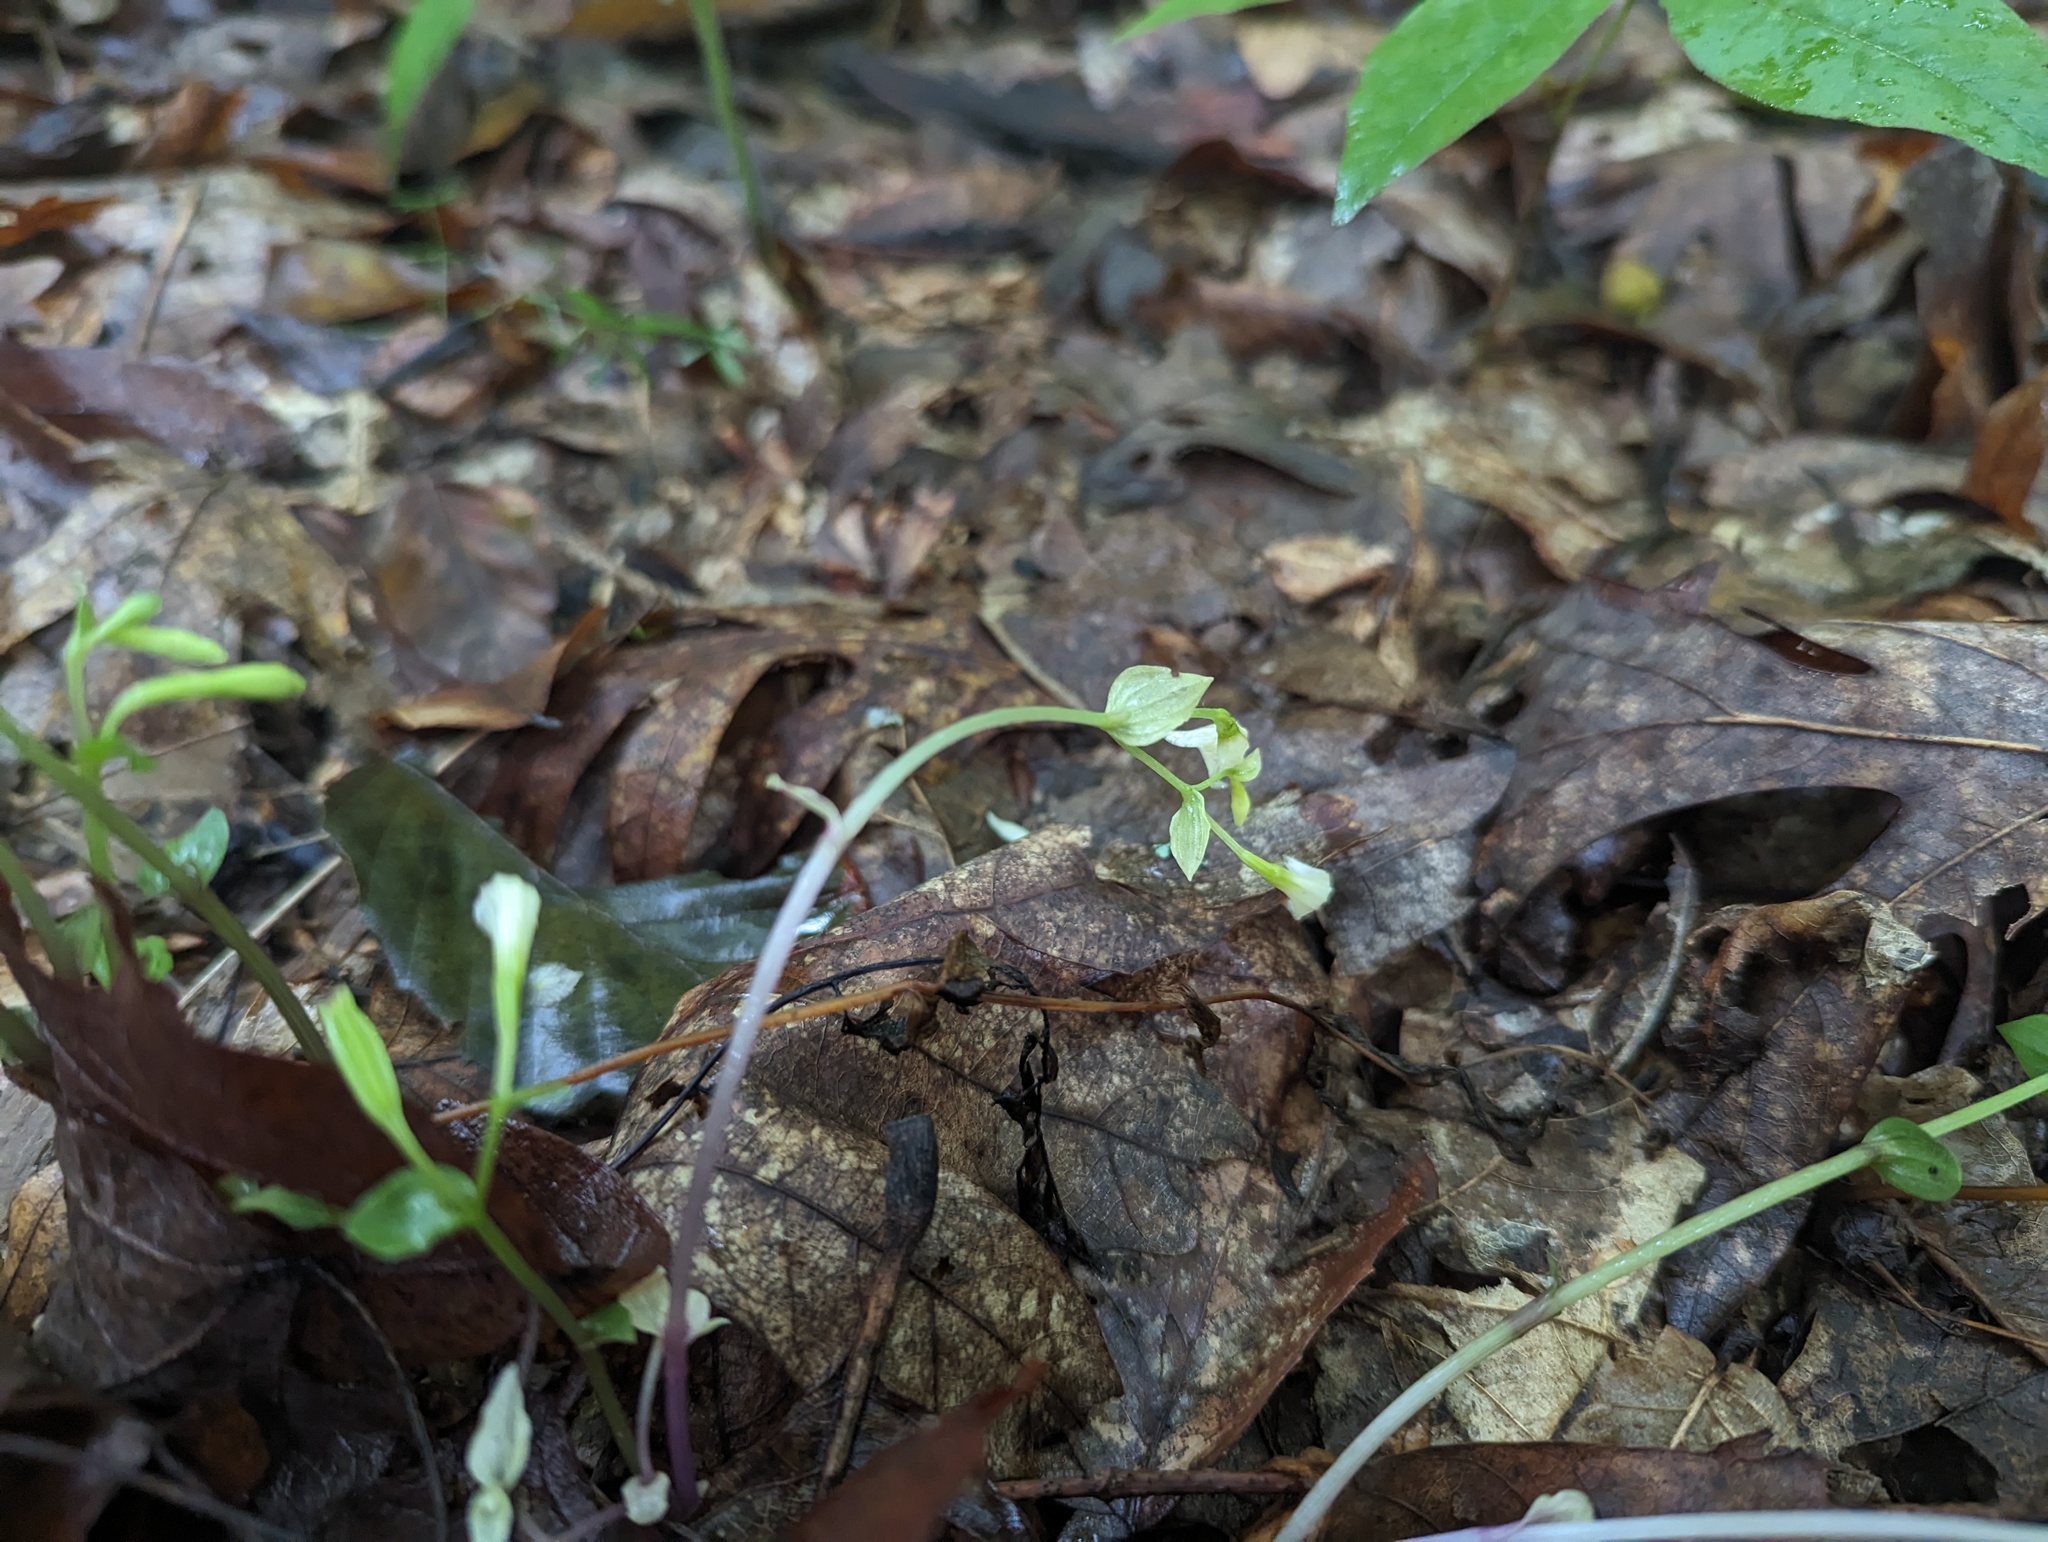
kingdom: Plantae
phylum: Tracheophyta
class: Liliopsida
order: Asparagales
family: Orchidaceae
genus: Triphora
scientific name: Triphora trianthophoros
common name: Three birds orchid
